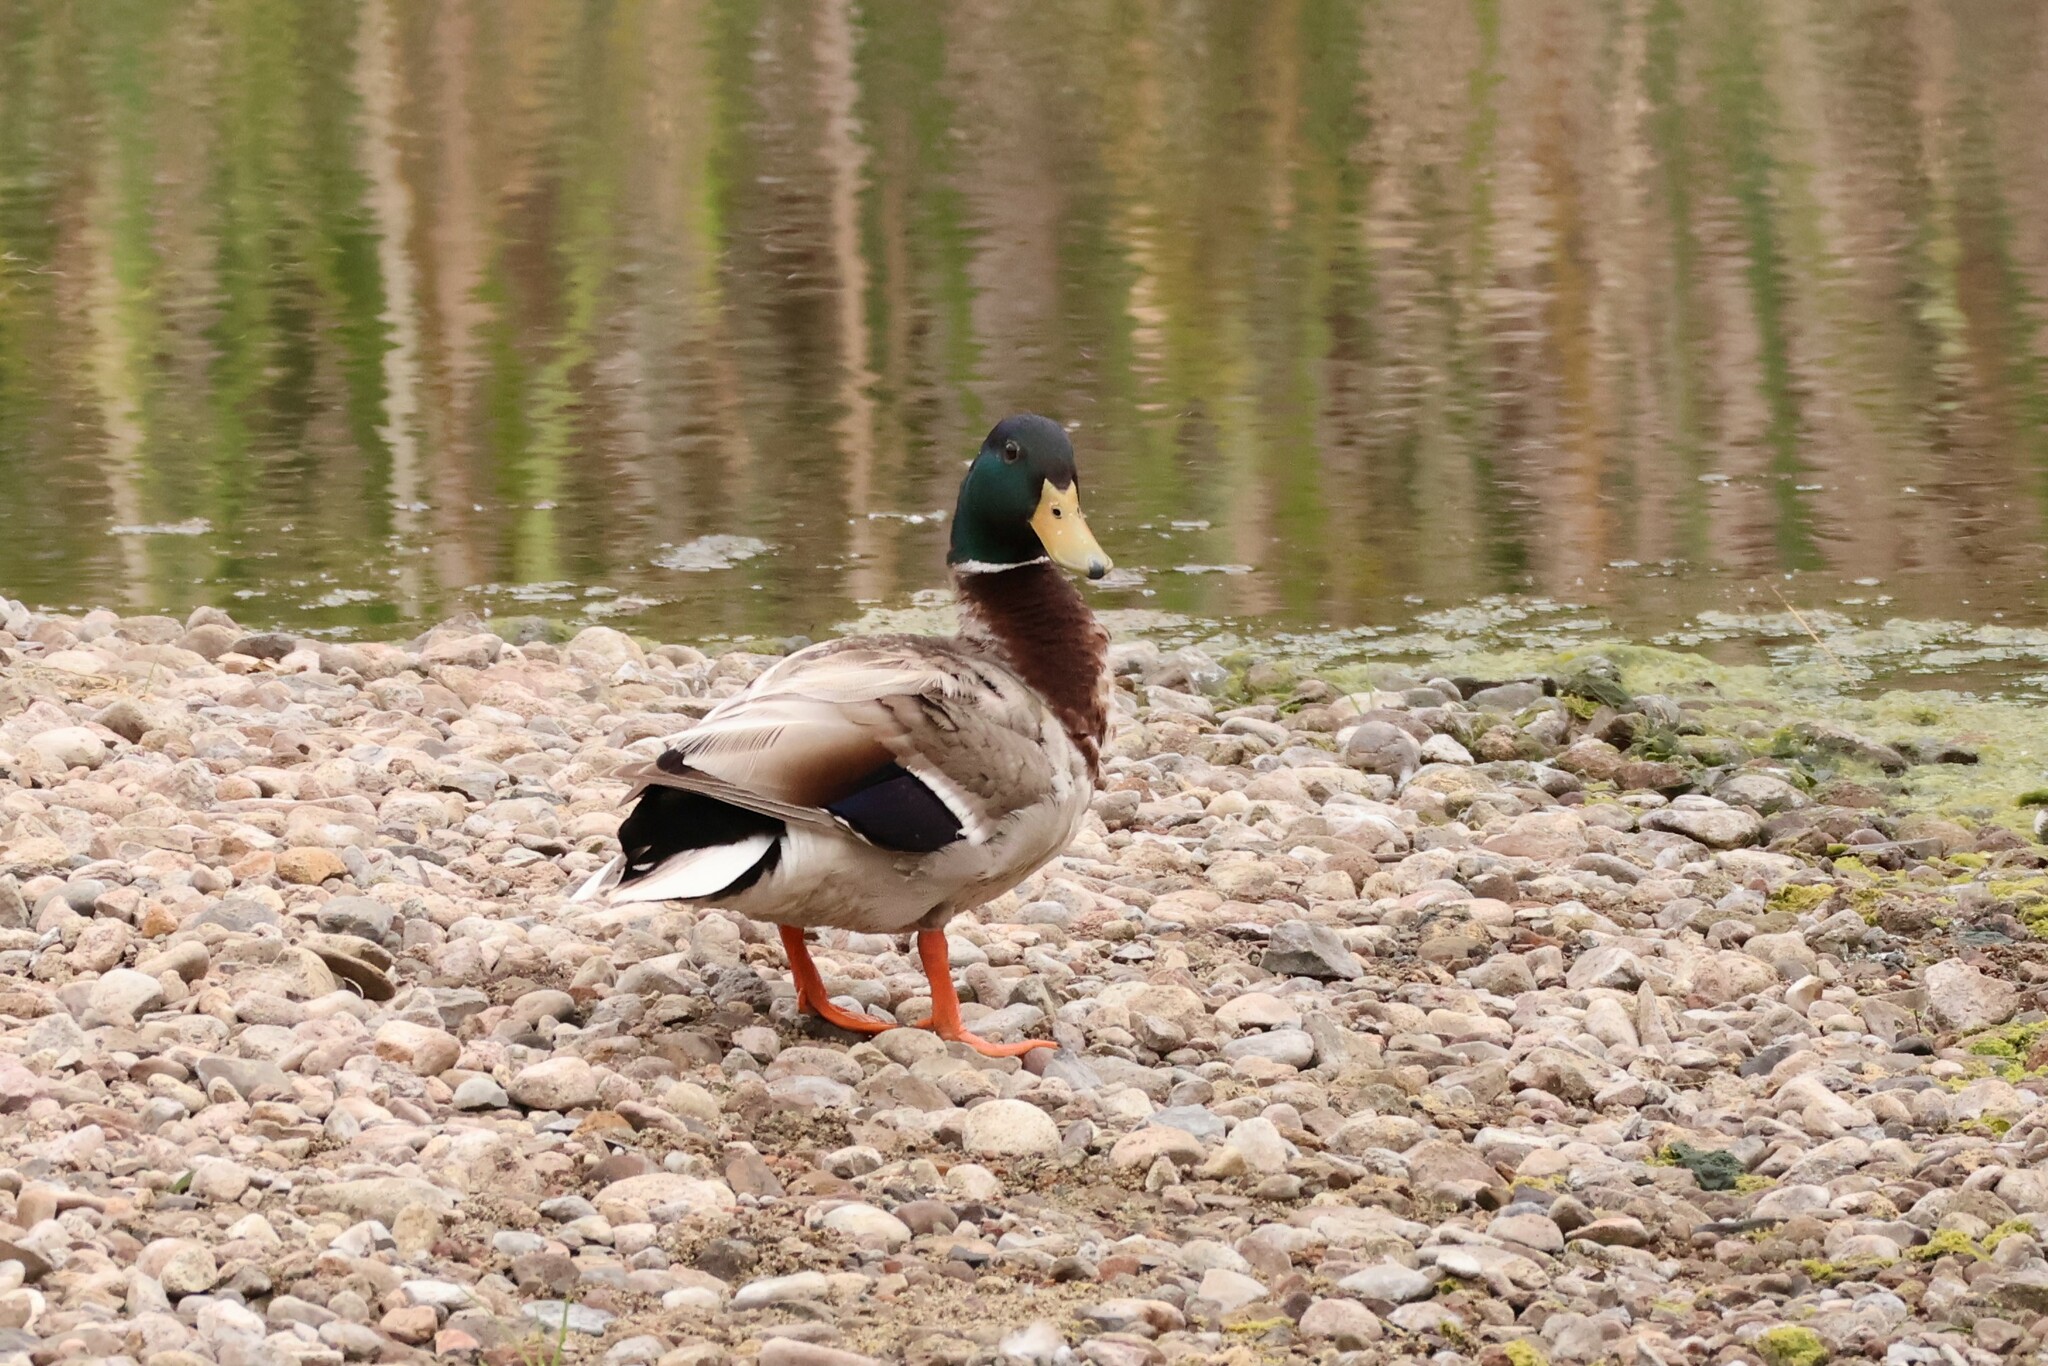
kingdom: Animalia
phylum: Chordata
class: Aves
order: Anseriformes
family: Anatidae
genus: Anas
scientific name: Anas platyrhynchos
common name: Mallard
